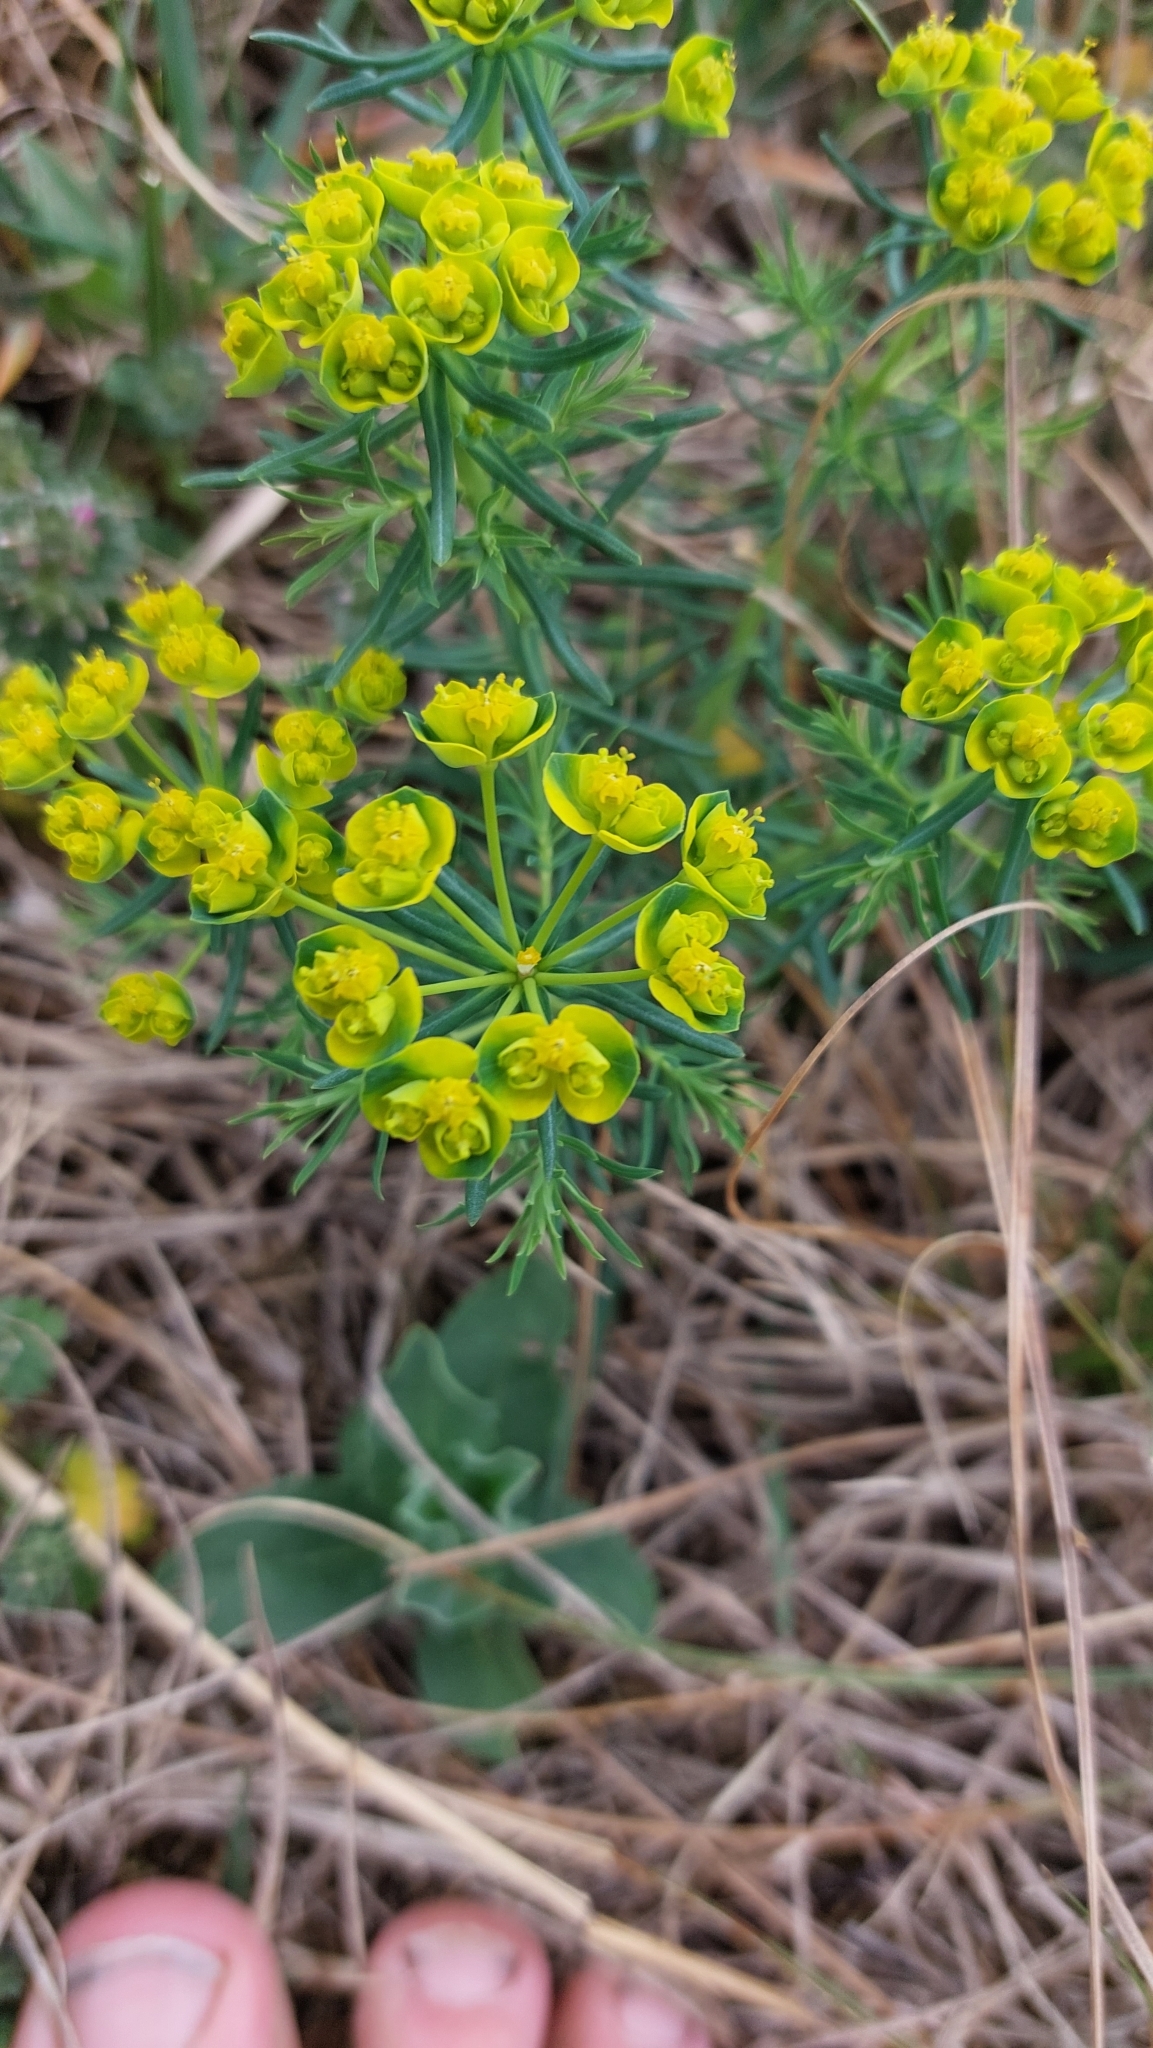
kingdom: Plantae
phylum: Tracheophyta
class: Magnoliopsida
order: Malpighiales
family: Euphorbiaceae
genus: Euphorbia
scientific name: Euphorbia cyparissias
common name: Cypress spurge
